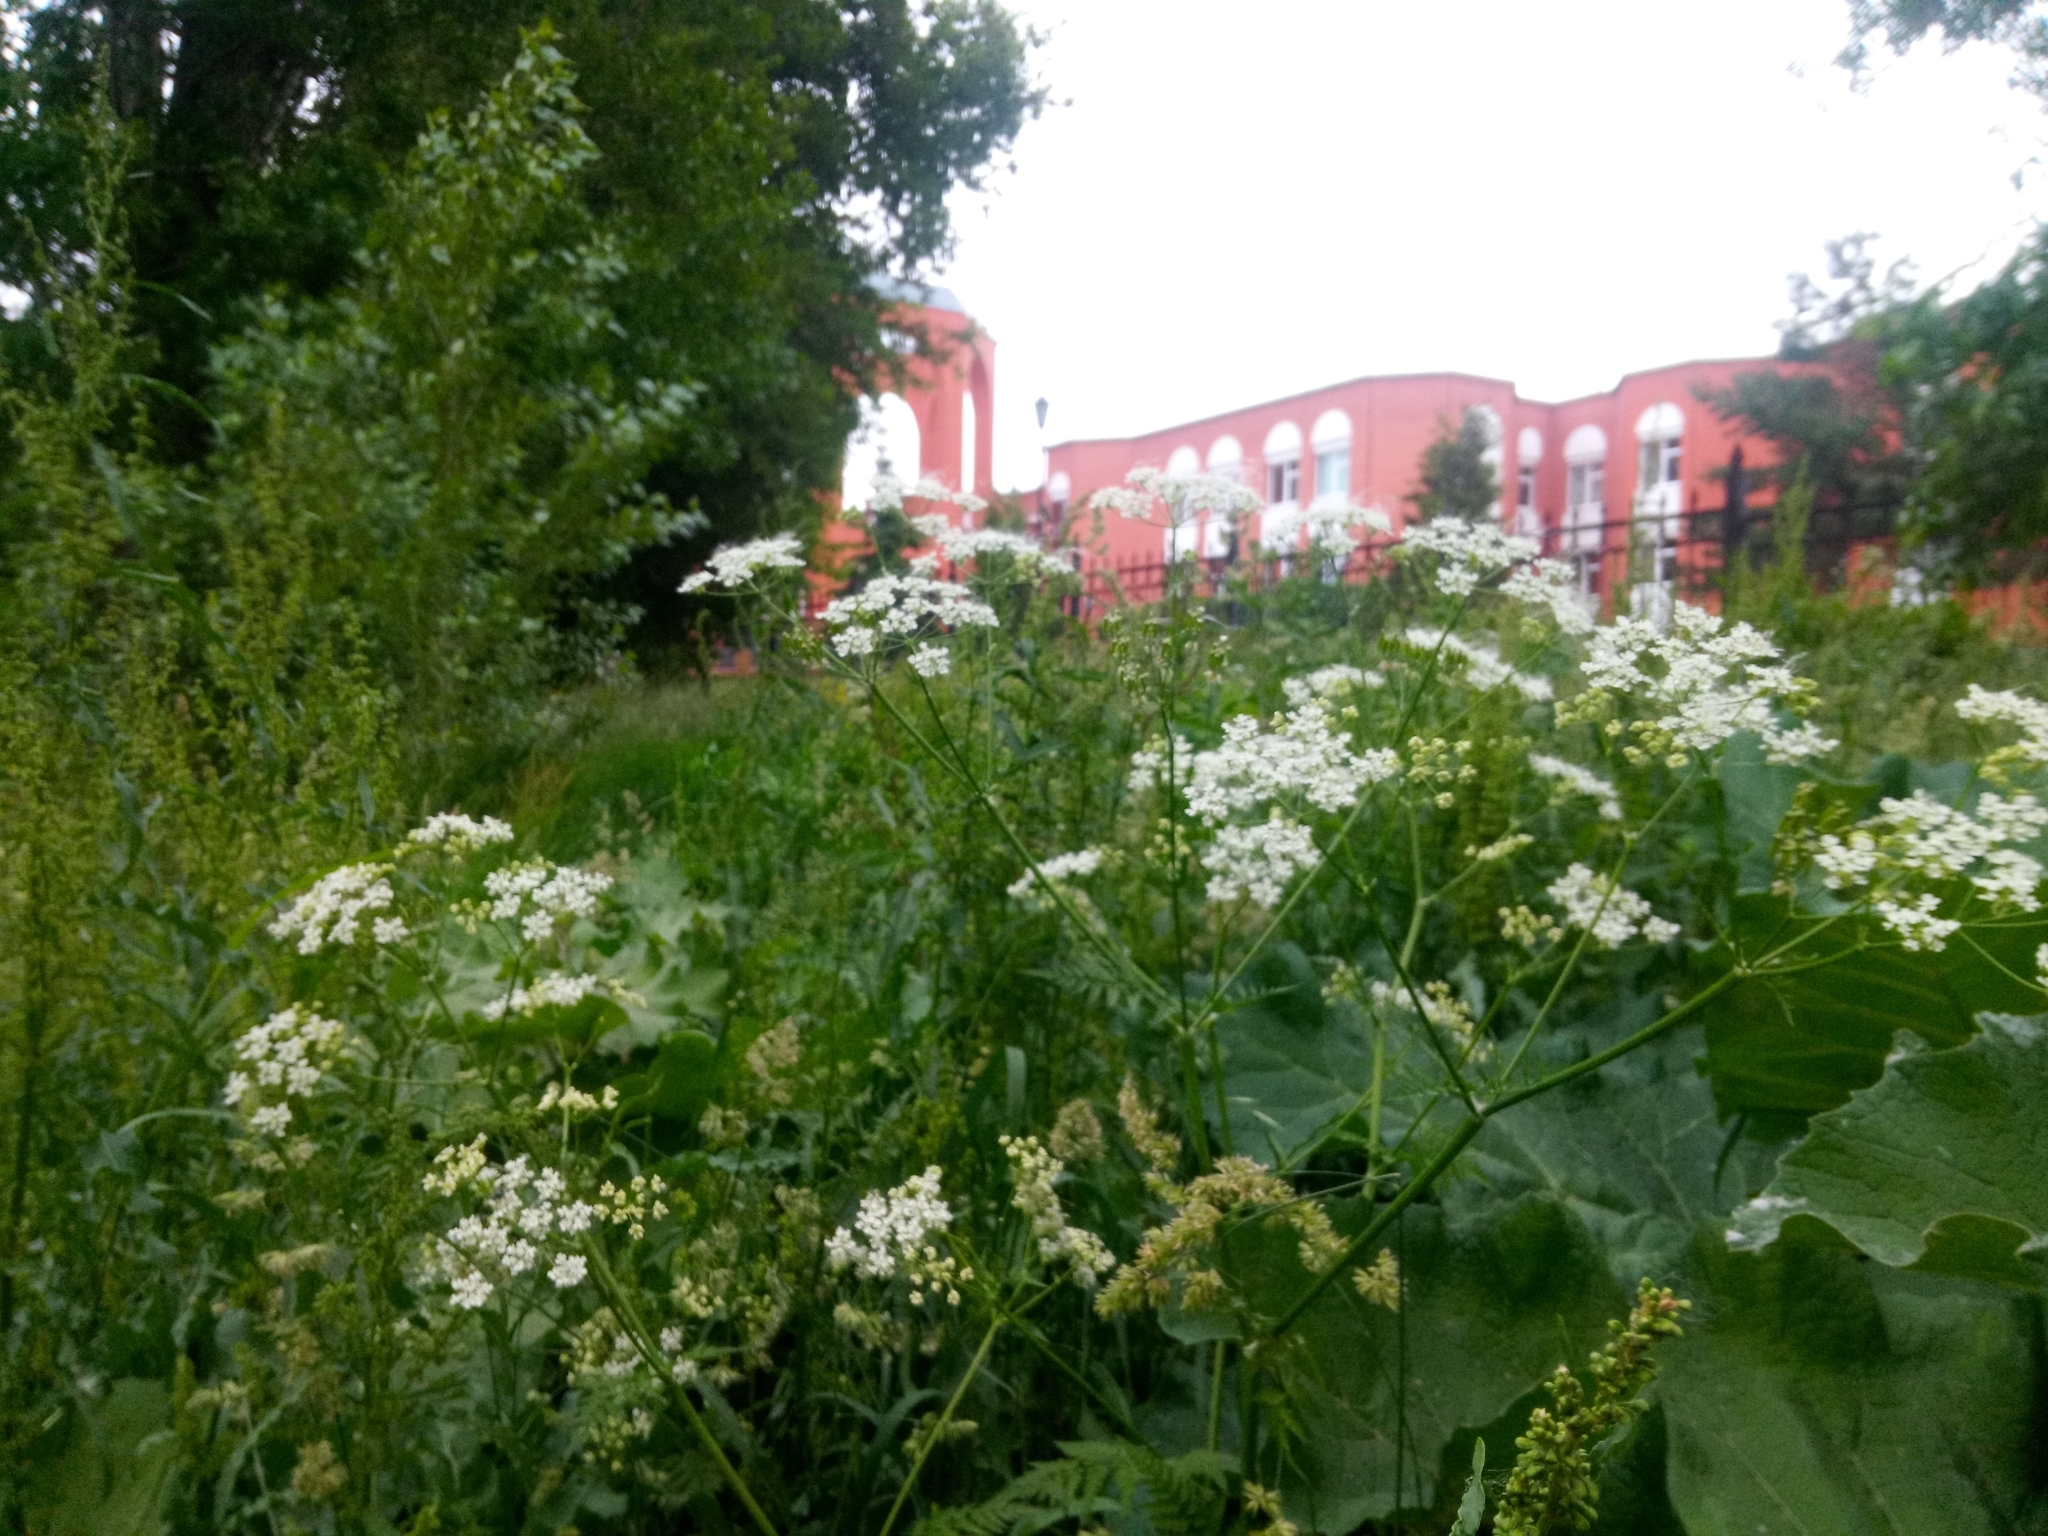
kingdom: Plantae
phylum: Tracheophyta
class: Magnoliopsida
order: Apiales
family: Apiaceae
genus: Anthriscus
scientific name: Anthriscus sylvestris
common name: Cow parsley
